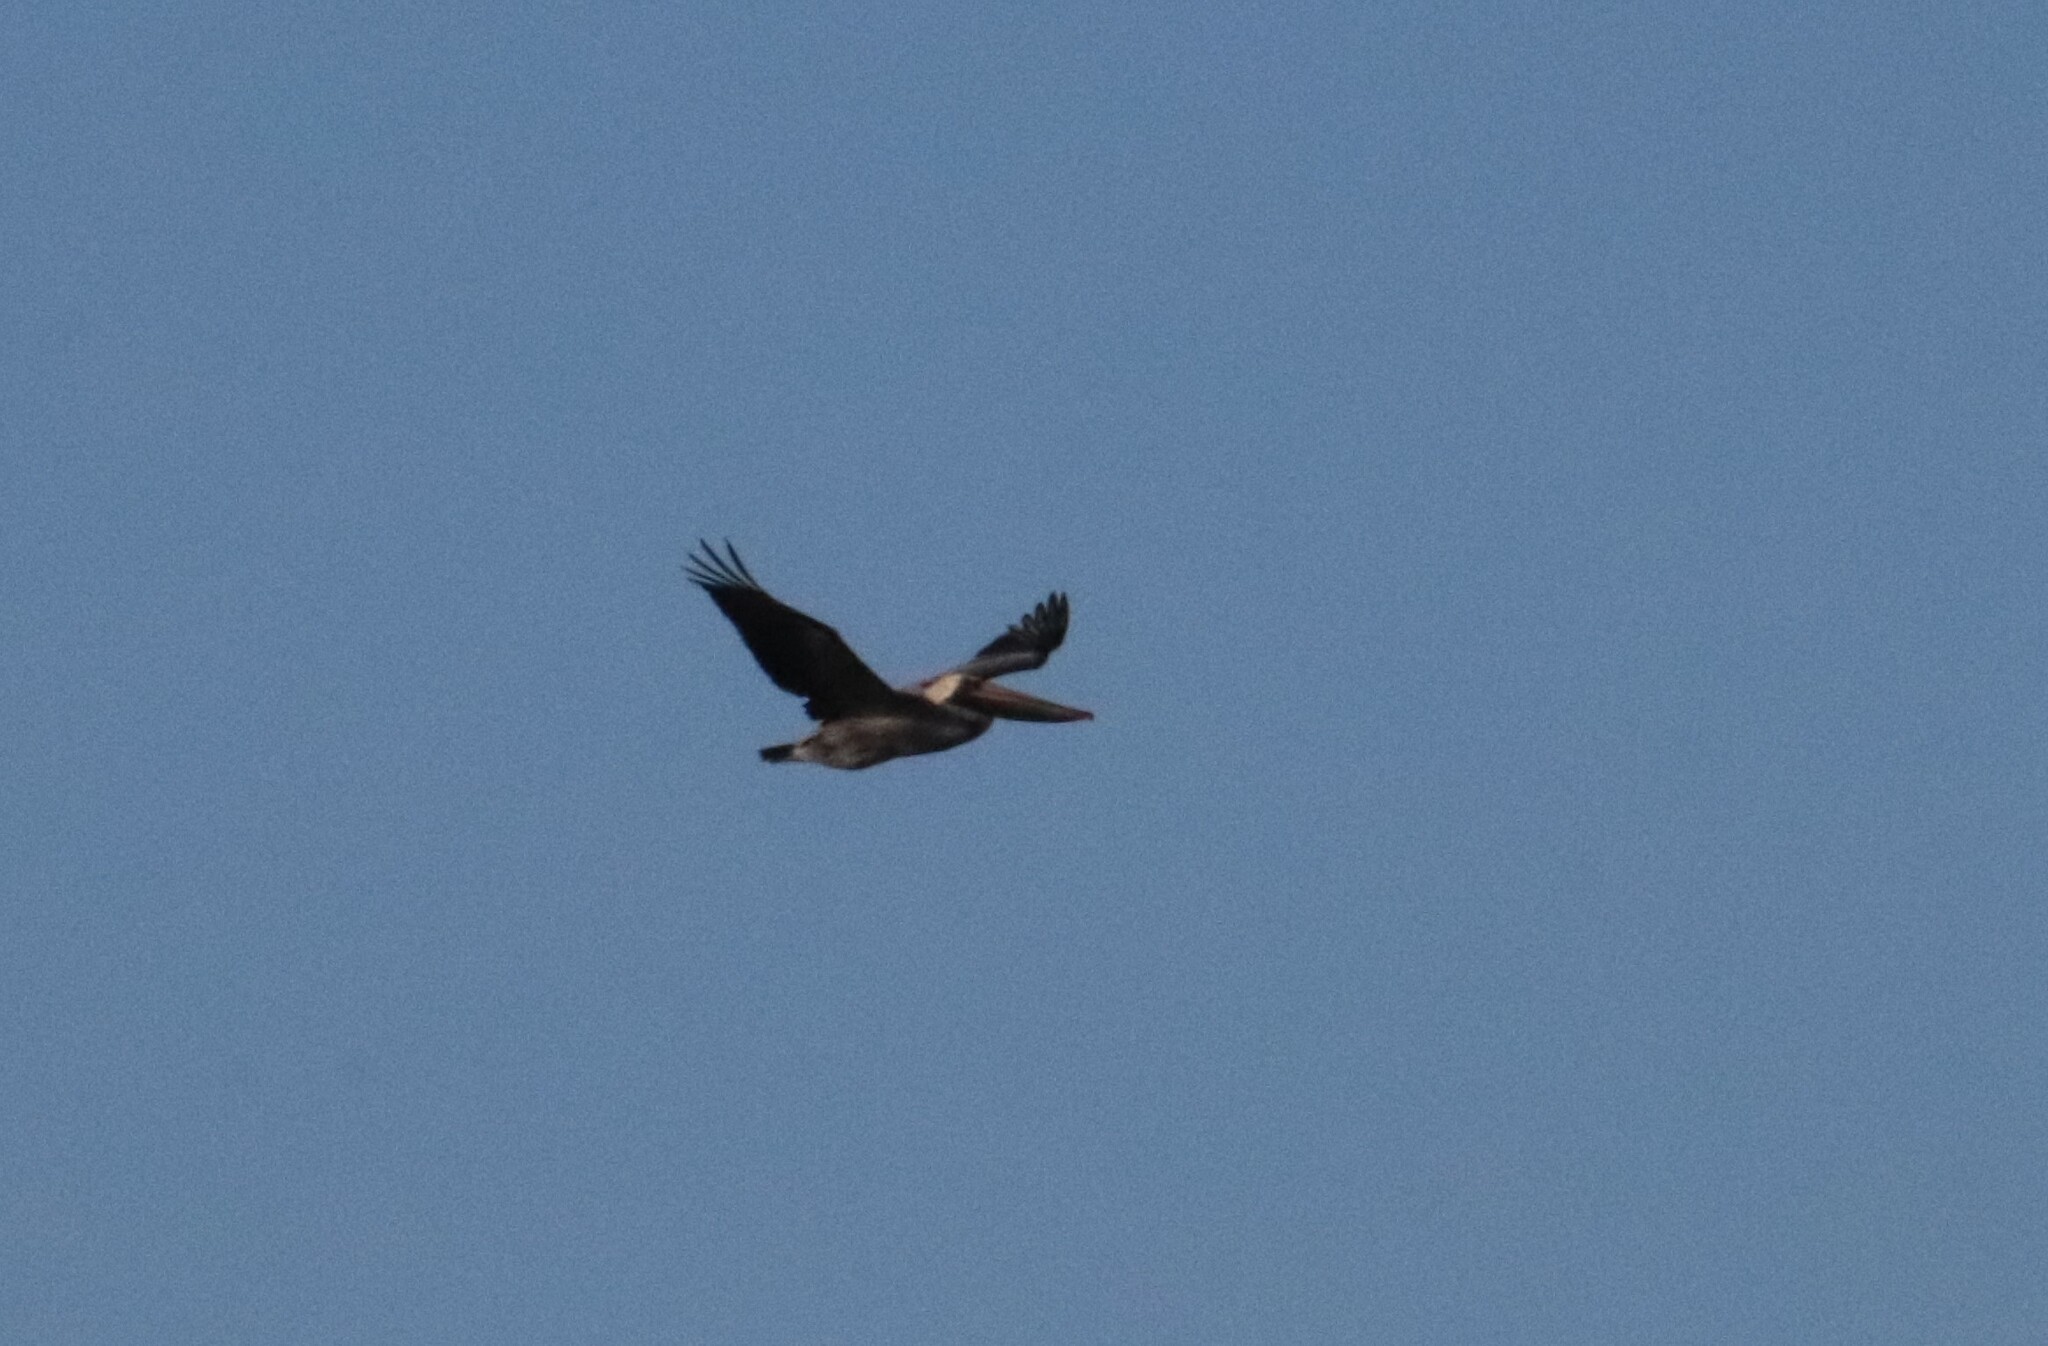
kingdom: Animalia
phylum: Chordata
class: Aves
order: Pelecaniformes
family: Pelecanidae
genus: Pelecanus
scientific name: Pelecanus occidentalis
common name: Brown pelican
